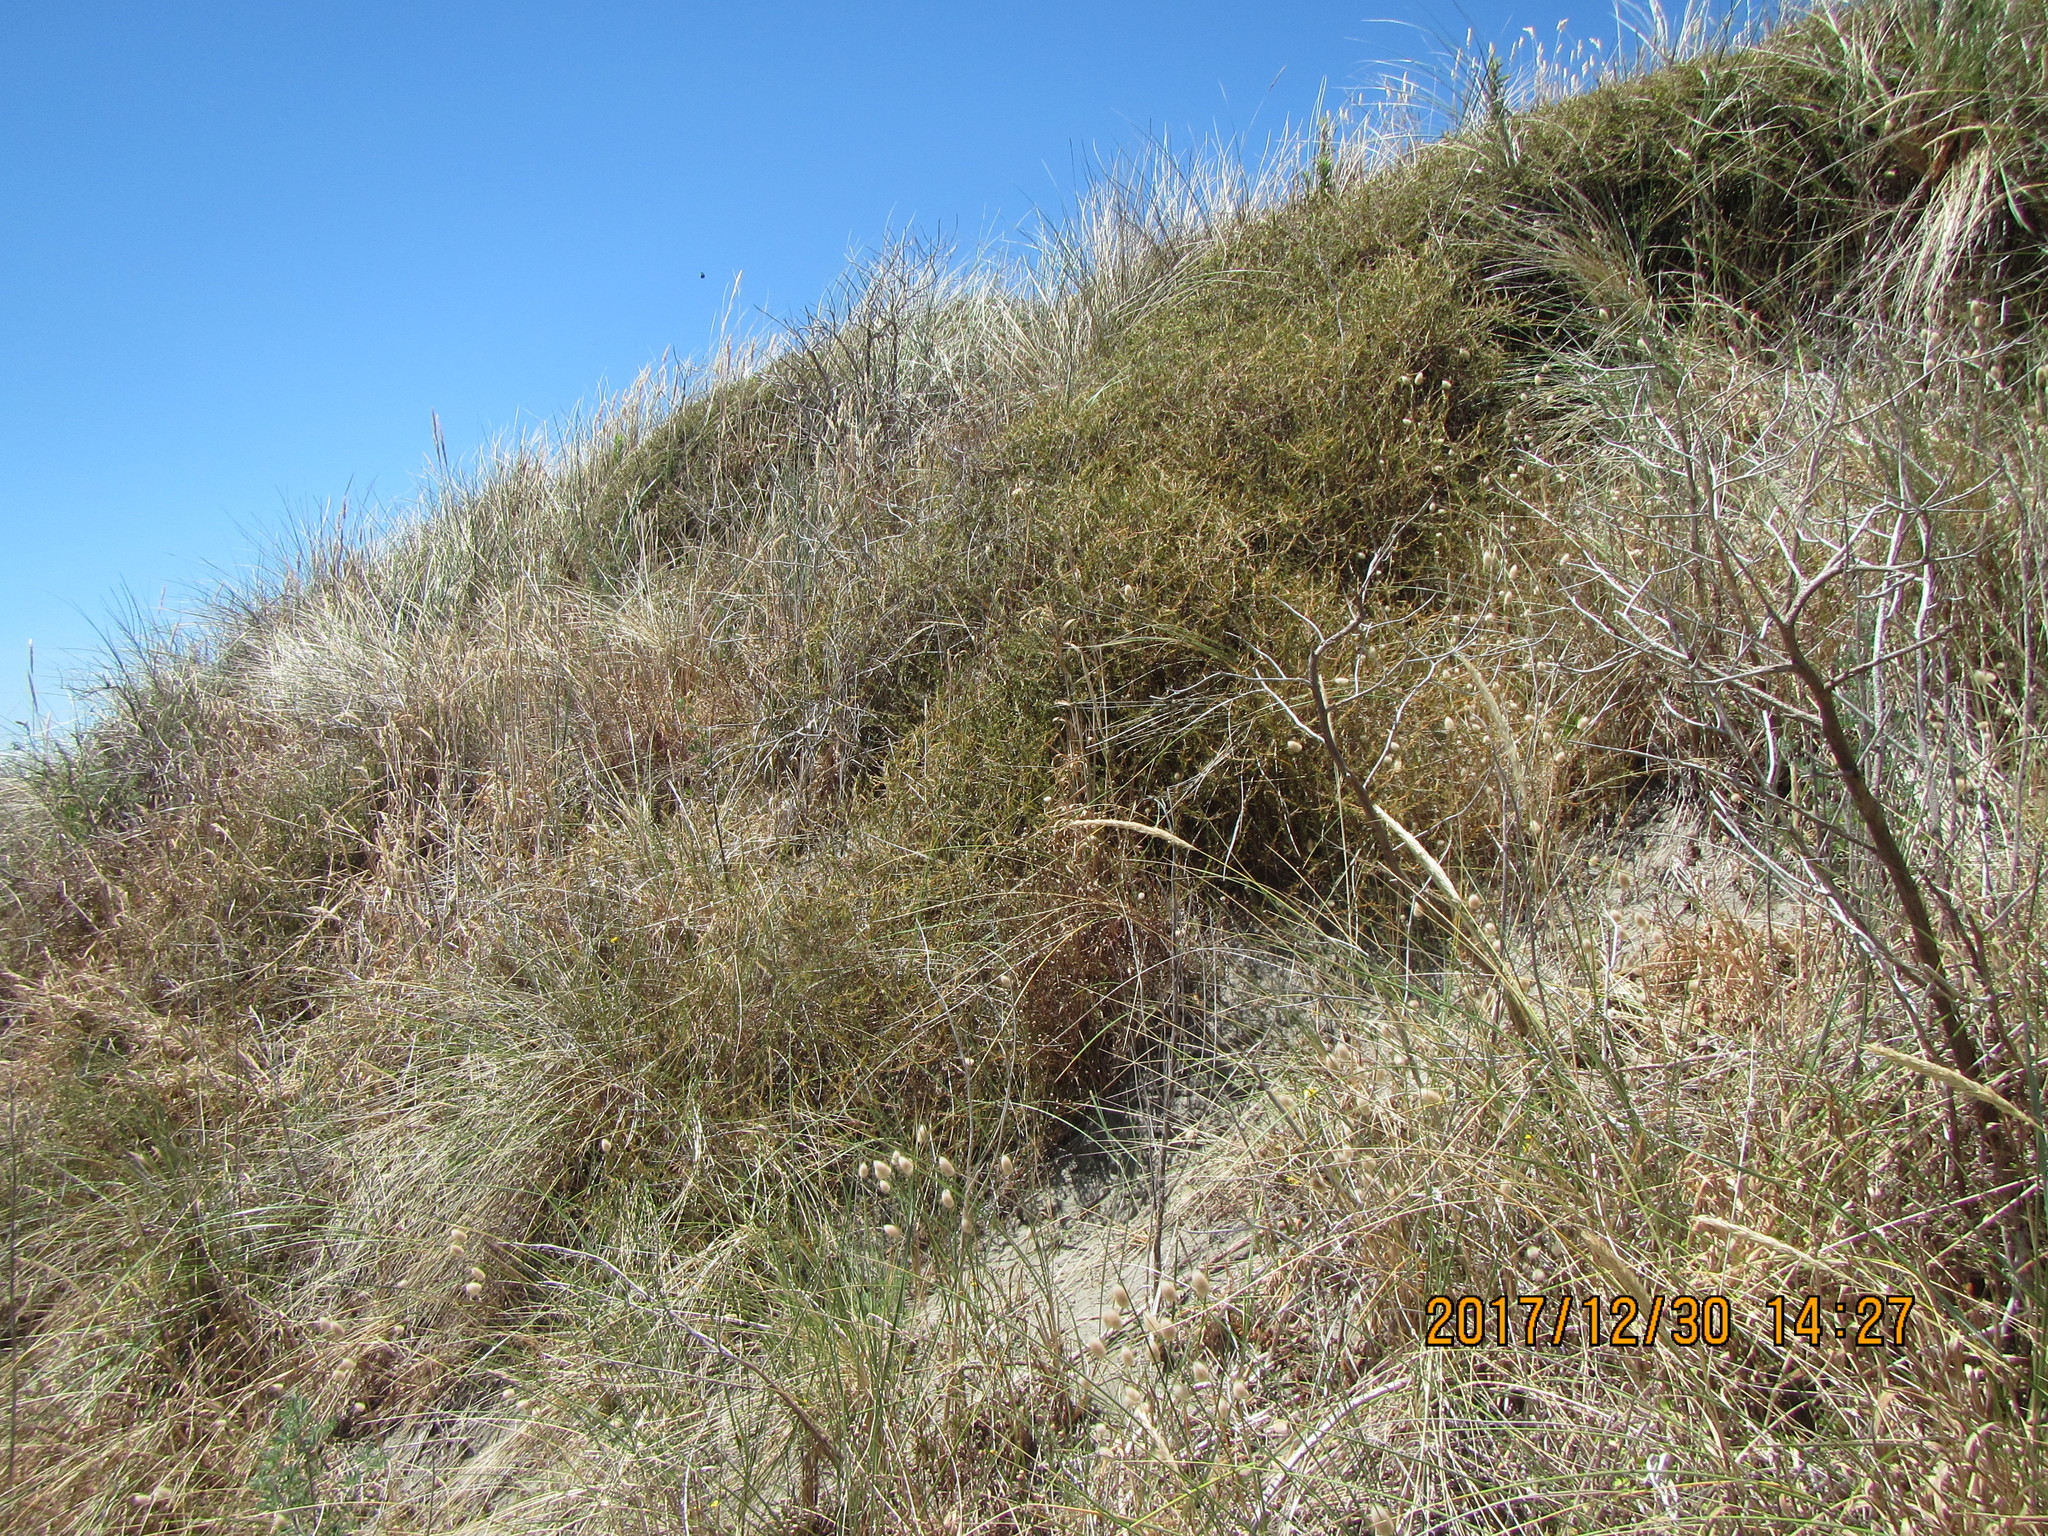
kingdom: Plantae
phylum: Tracheophyta
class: Magnoliopsida
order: Gentianales
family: Rubiaceae
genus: Coprosma
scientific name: Coprosma acerosa
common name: Sand coprosma
